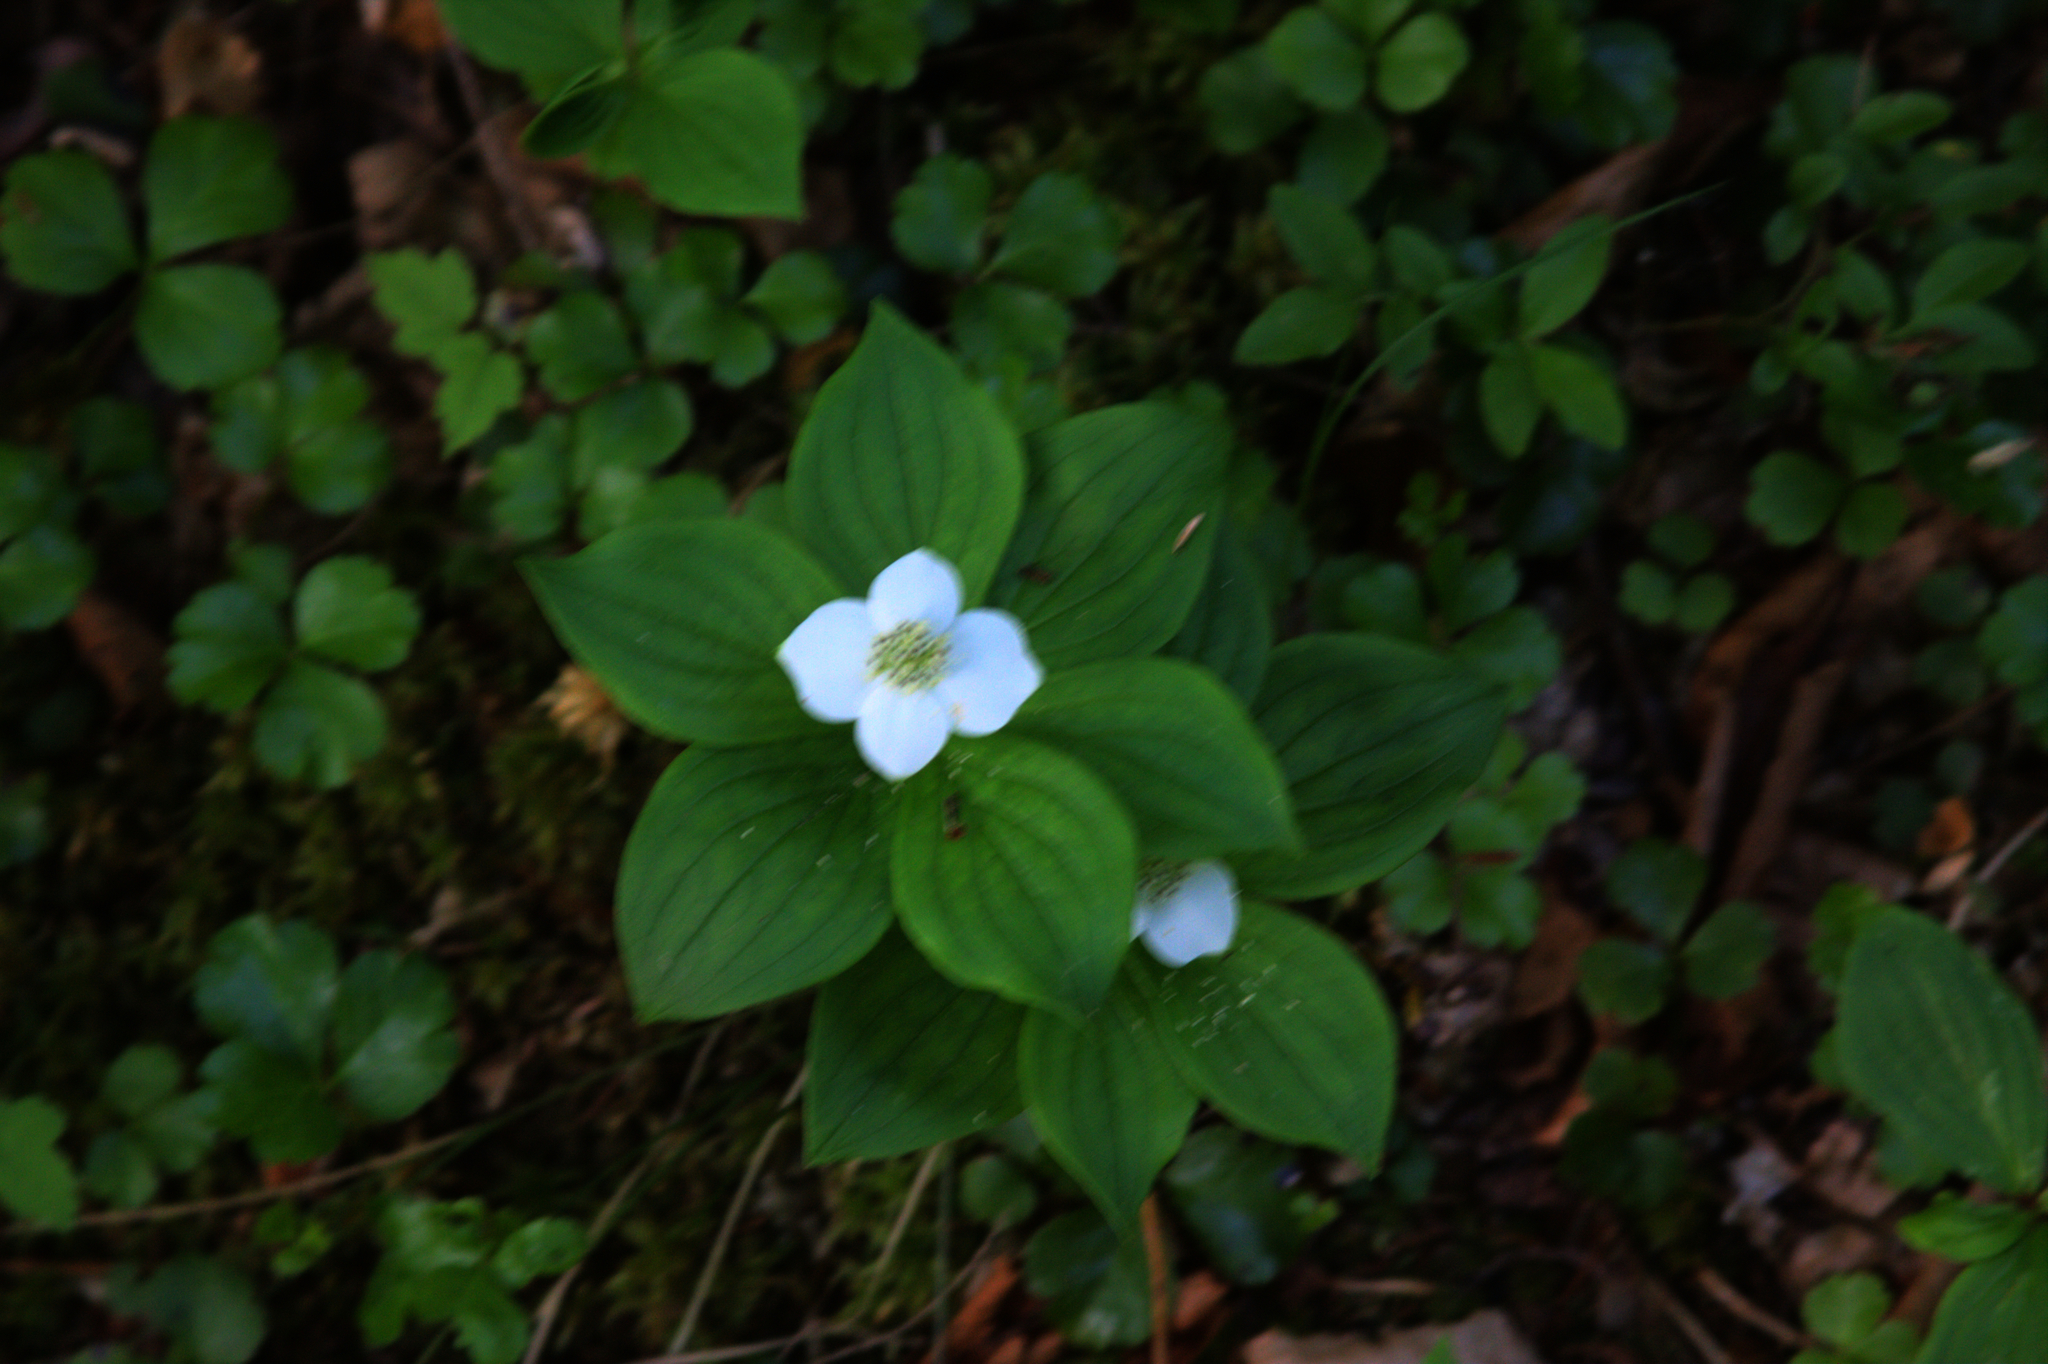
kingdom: Plantae
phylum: Tracheophyta
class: Magnoliopsida
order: Cornales
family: Cornaceae
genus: Cornus
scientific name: Cornus canadensis
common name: Creeping dogwood
